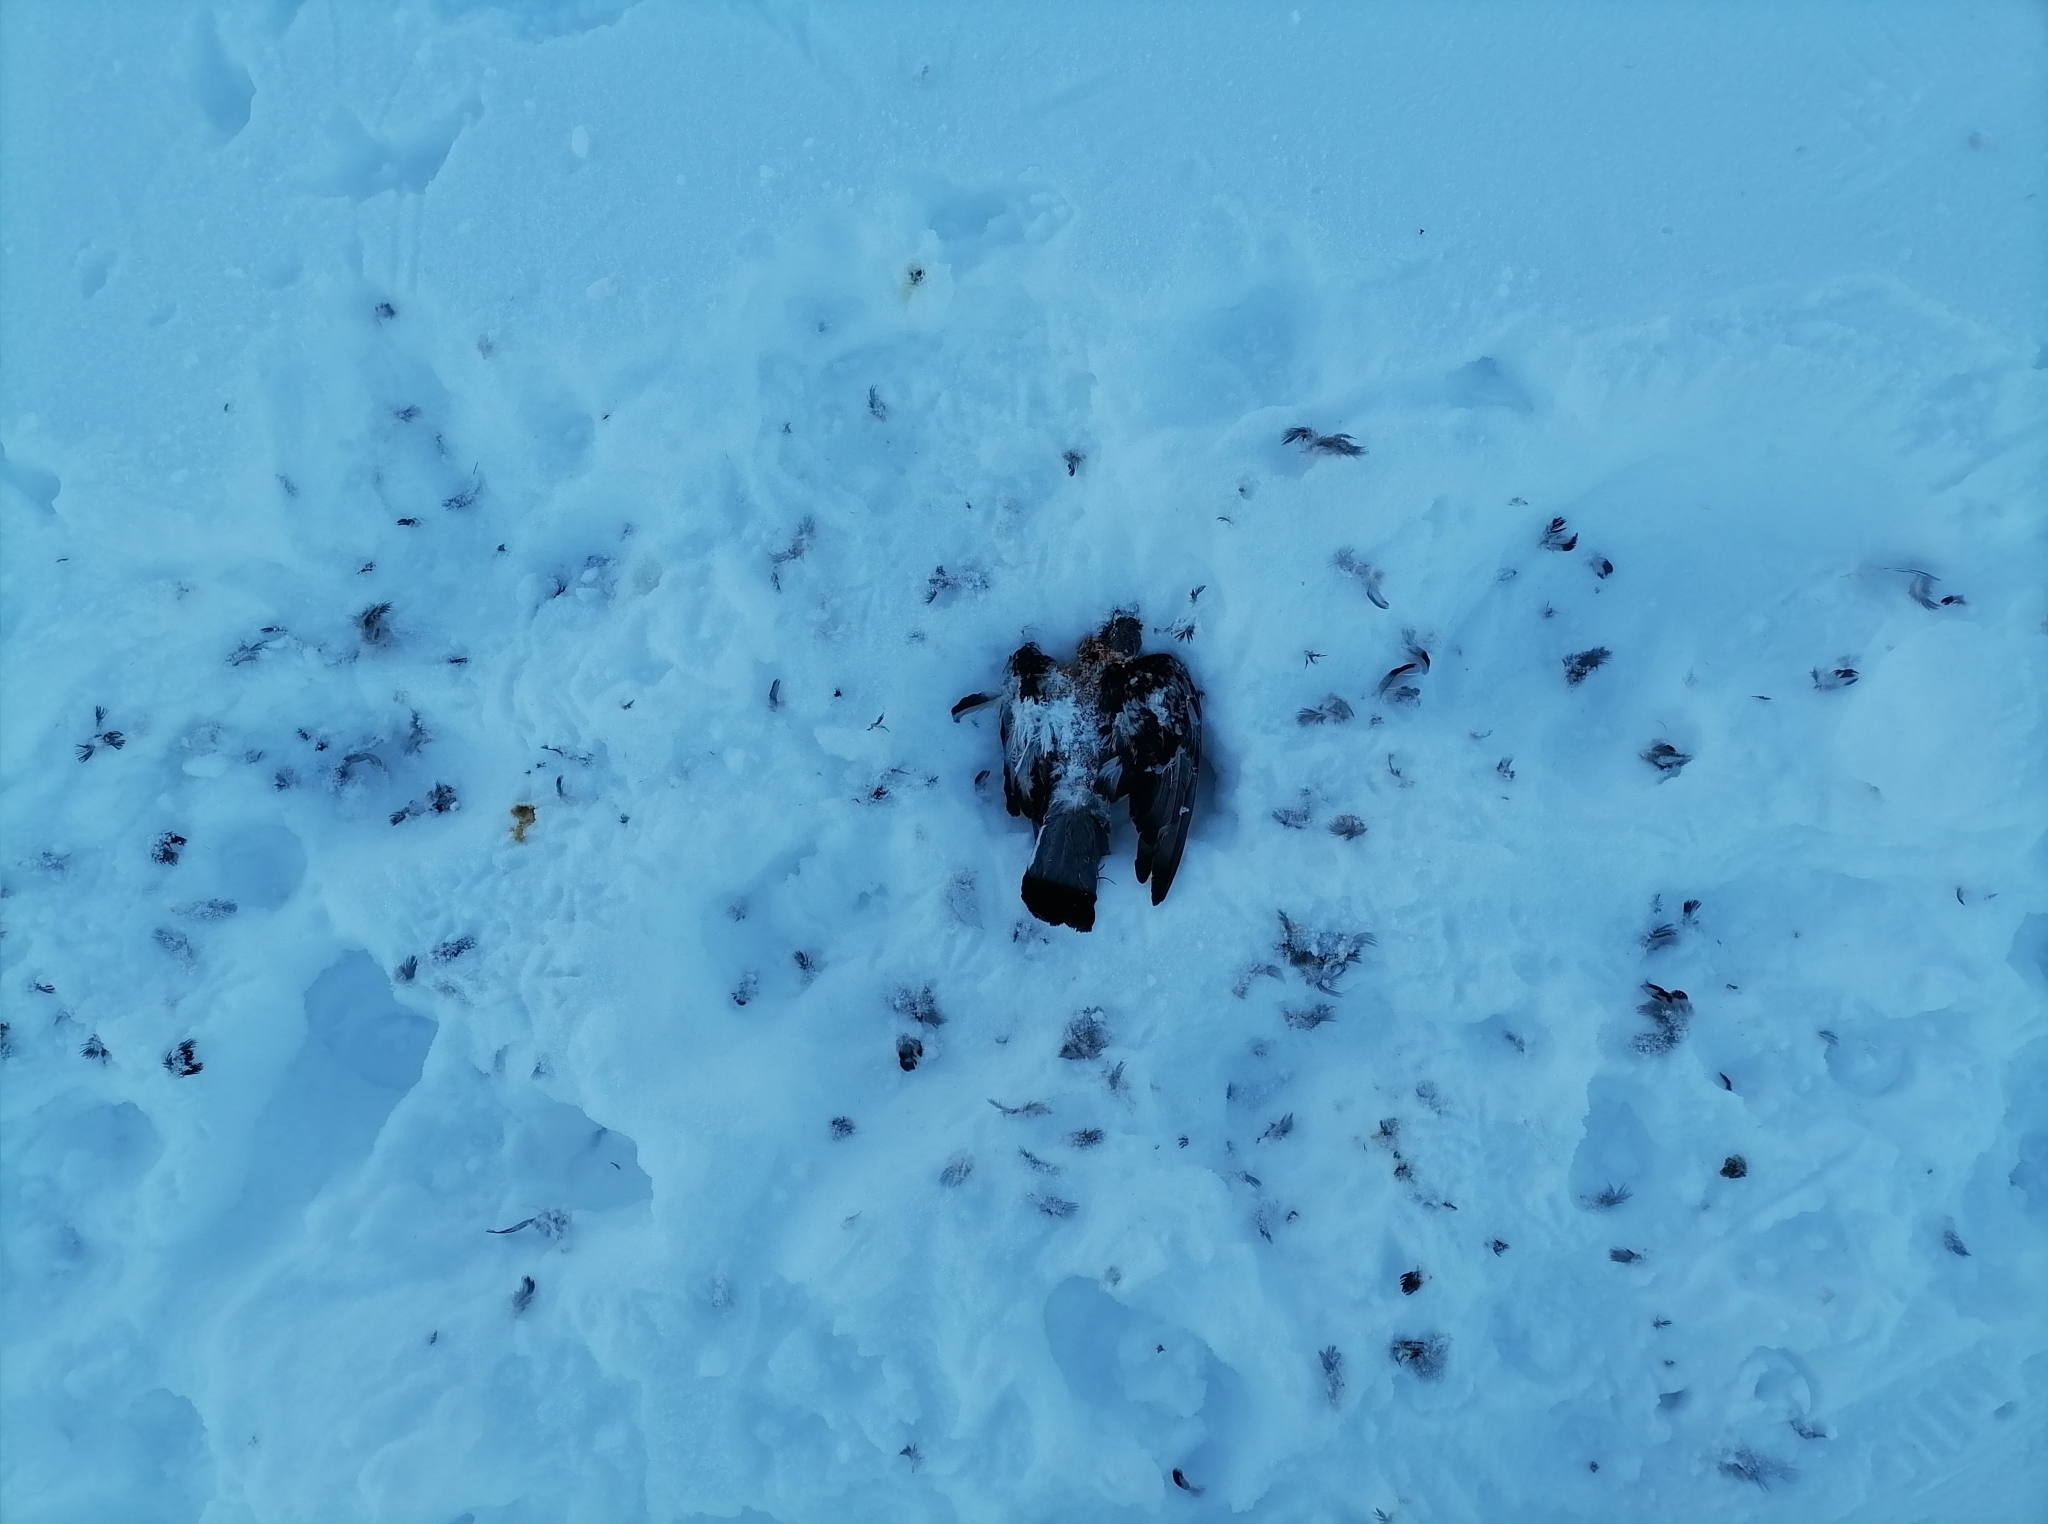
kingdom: Animalia
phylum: Chordata
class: Aves
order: Columbiformes
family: Columbidae
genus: Columba
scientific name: Columba livia
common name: Rock pigeon
